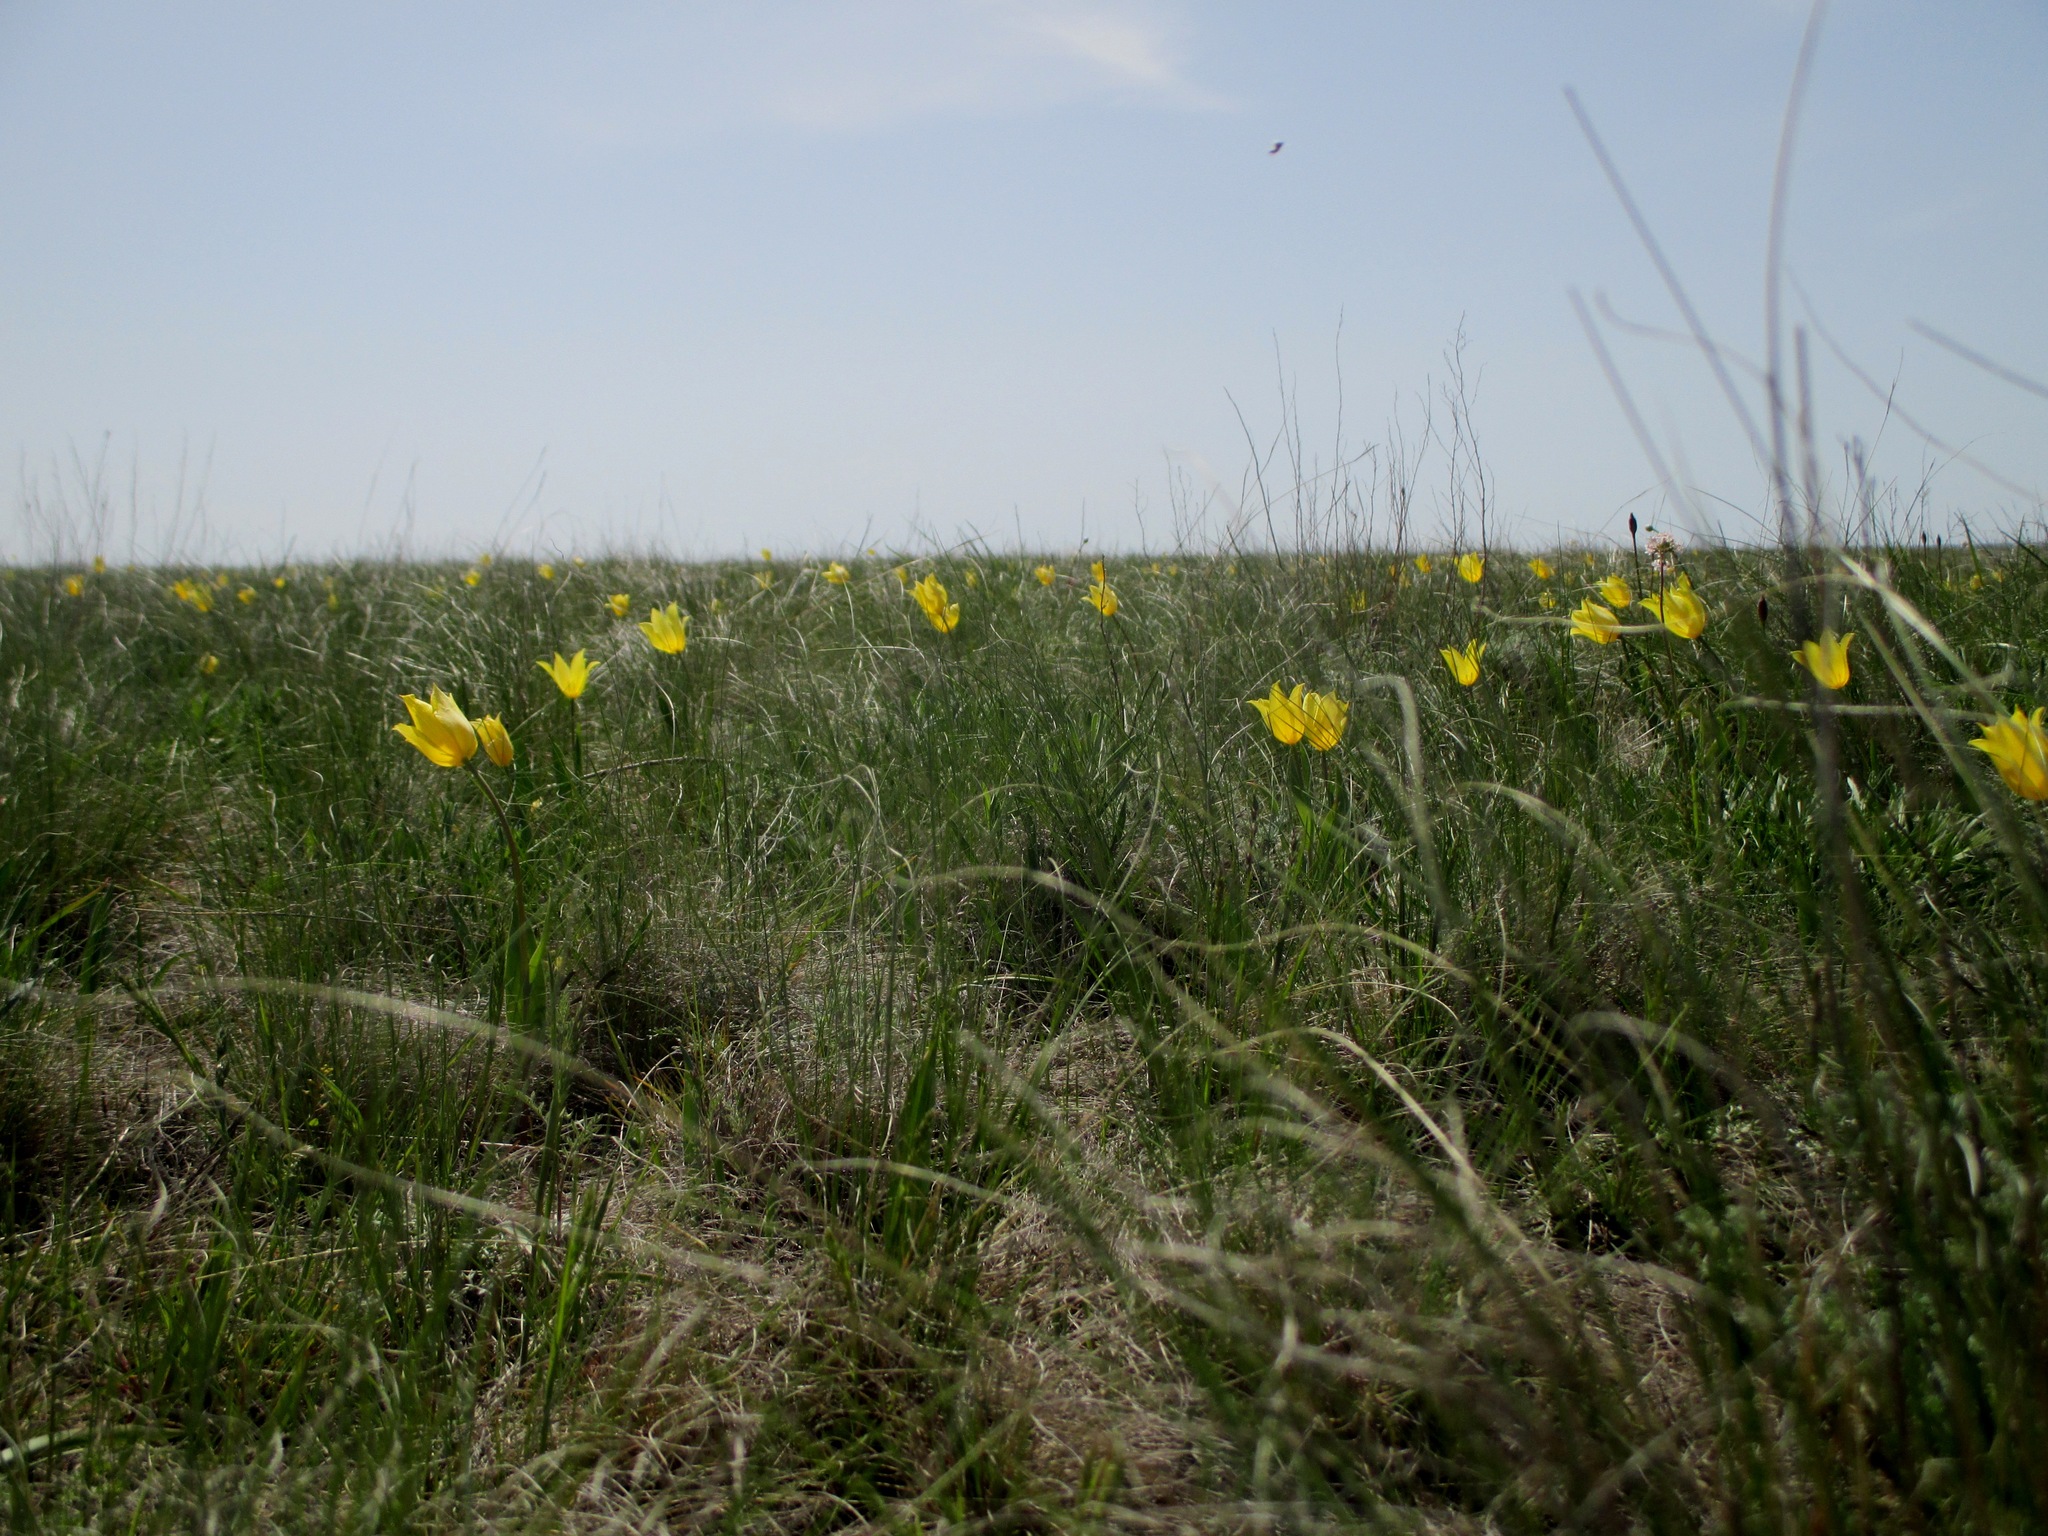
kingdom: Plantae
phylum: Tracheophyta
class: Liliopsida
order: Liliales
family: Liliaceae
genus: Tulipa
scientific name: Tulipa suaveolens
